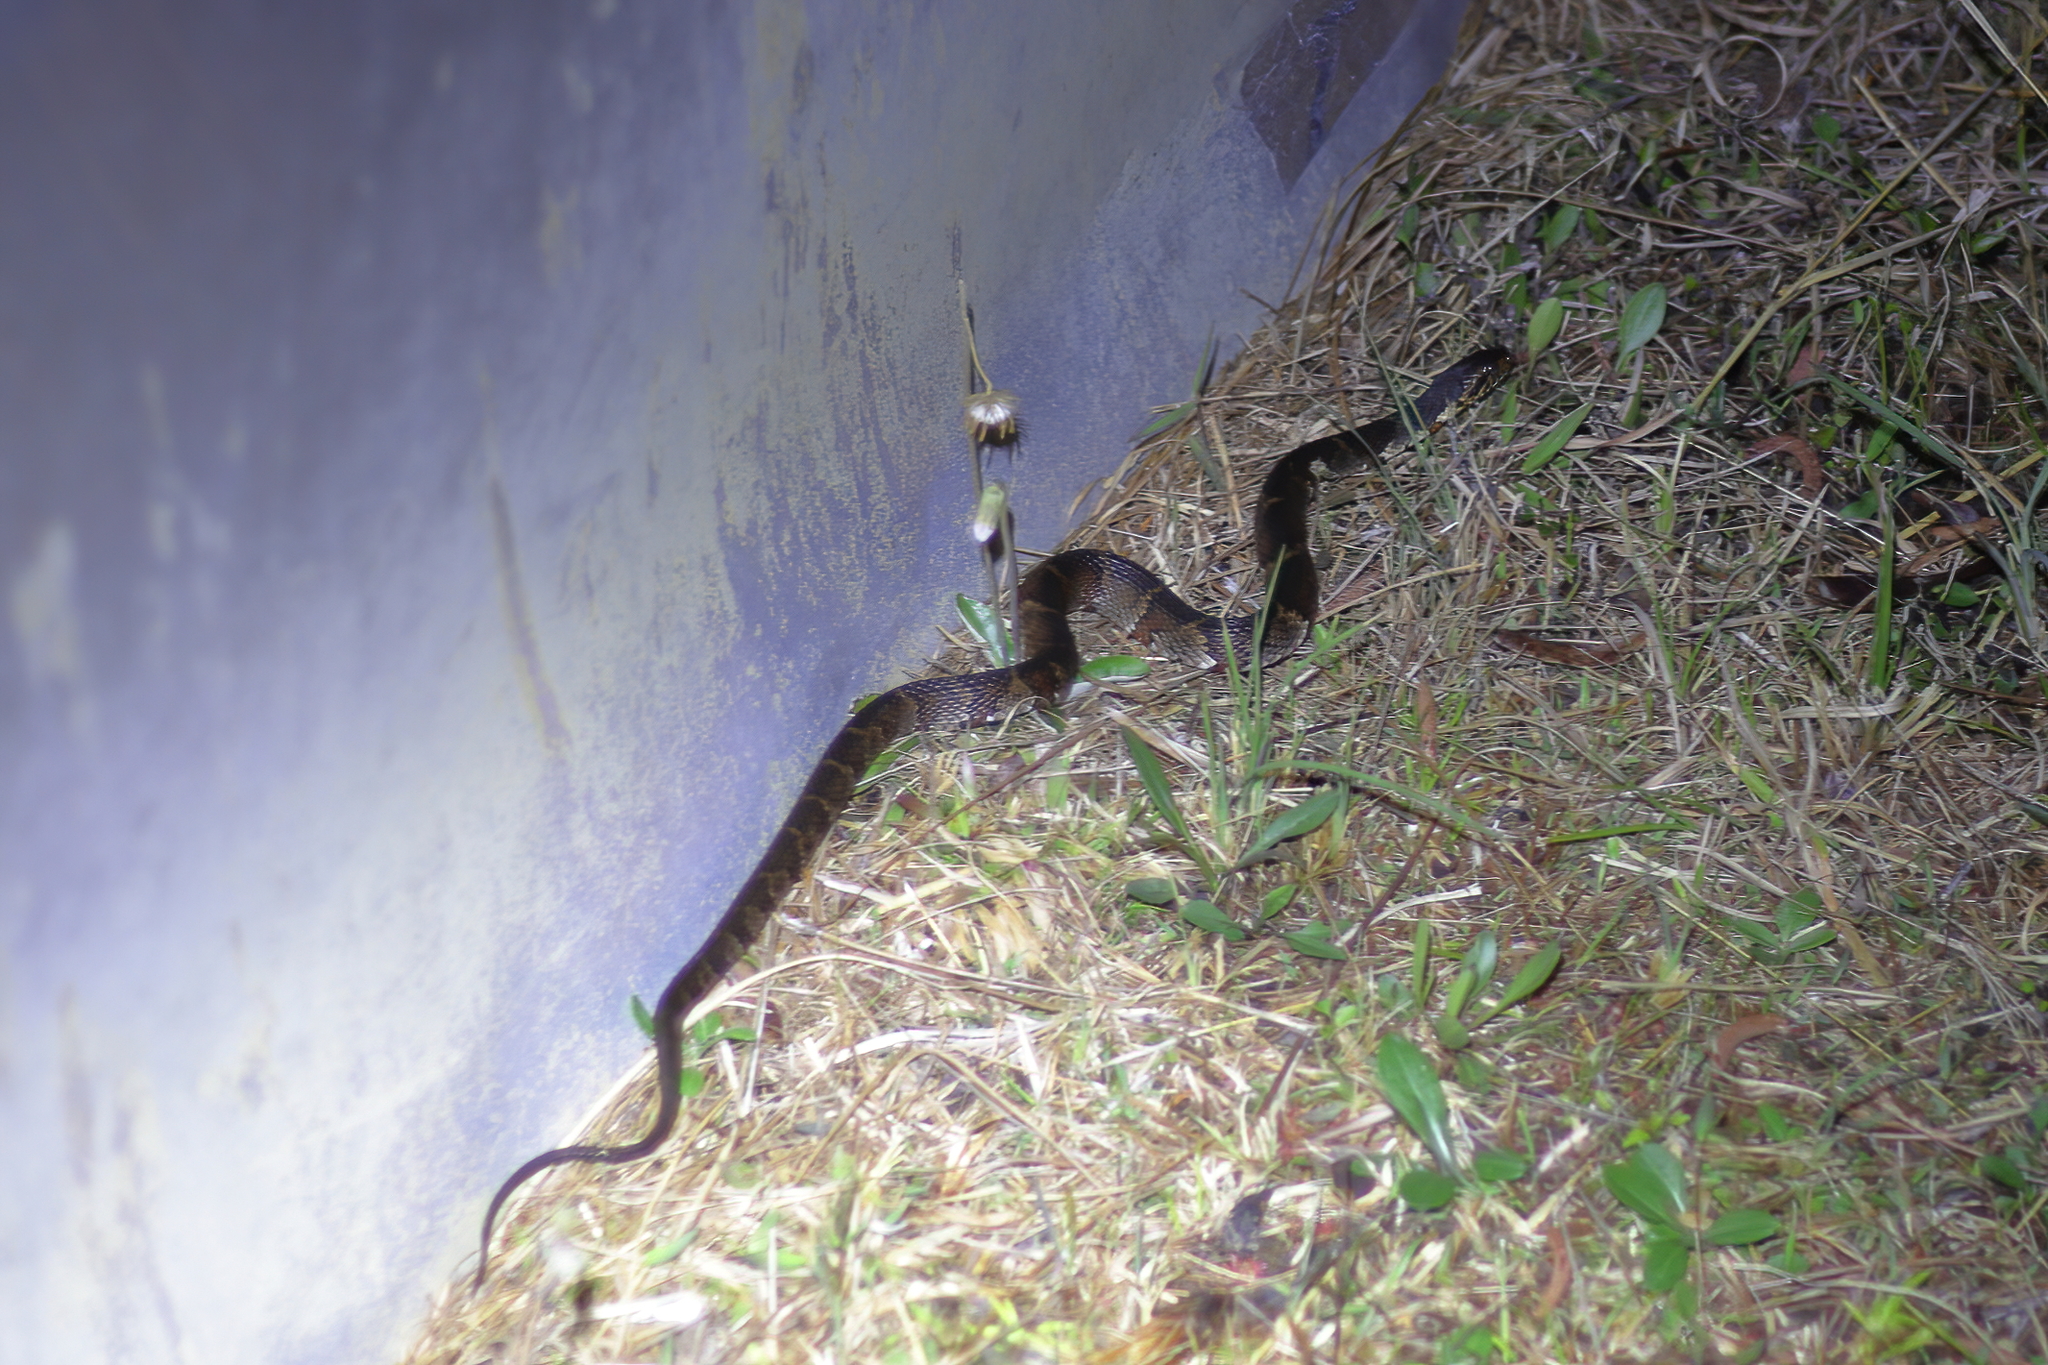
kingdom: Animalia
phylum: Chordata
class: Squamata
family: Colubridae
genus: Nerodia
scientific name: Nerodia fasciata
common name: Southern water snake
